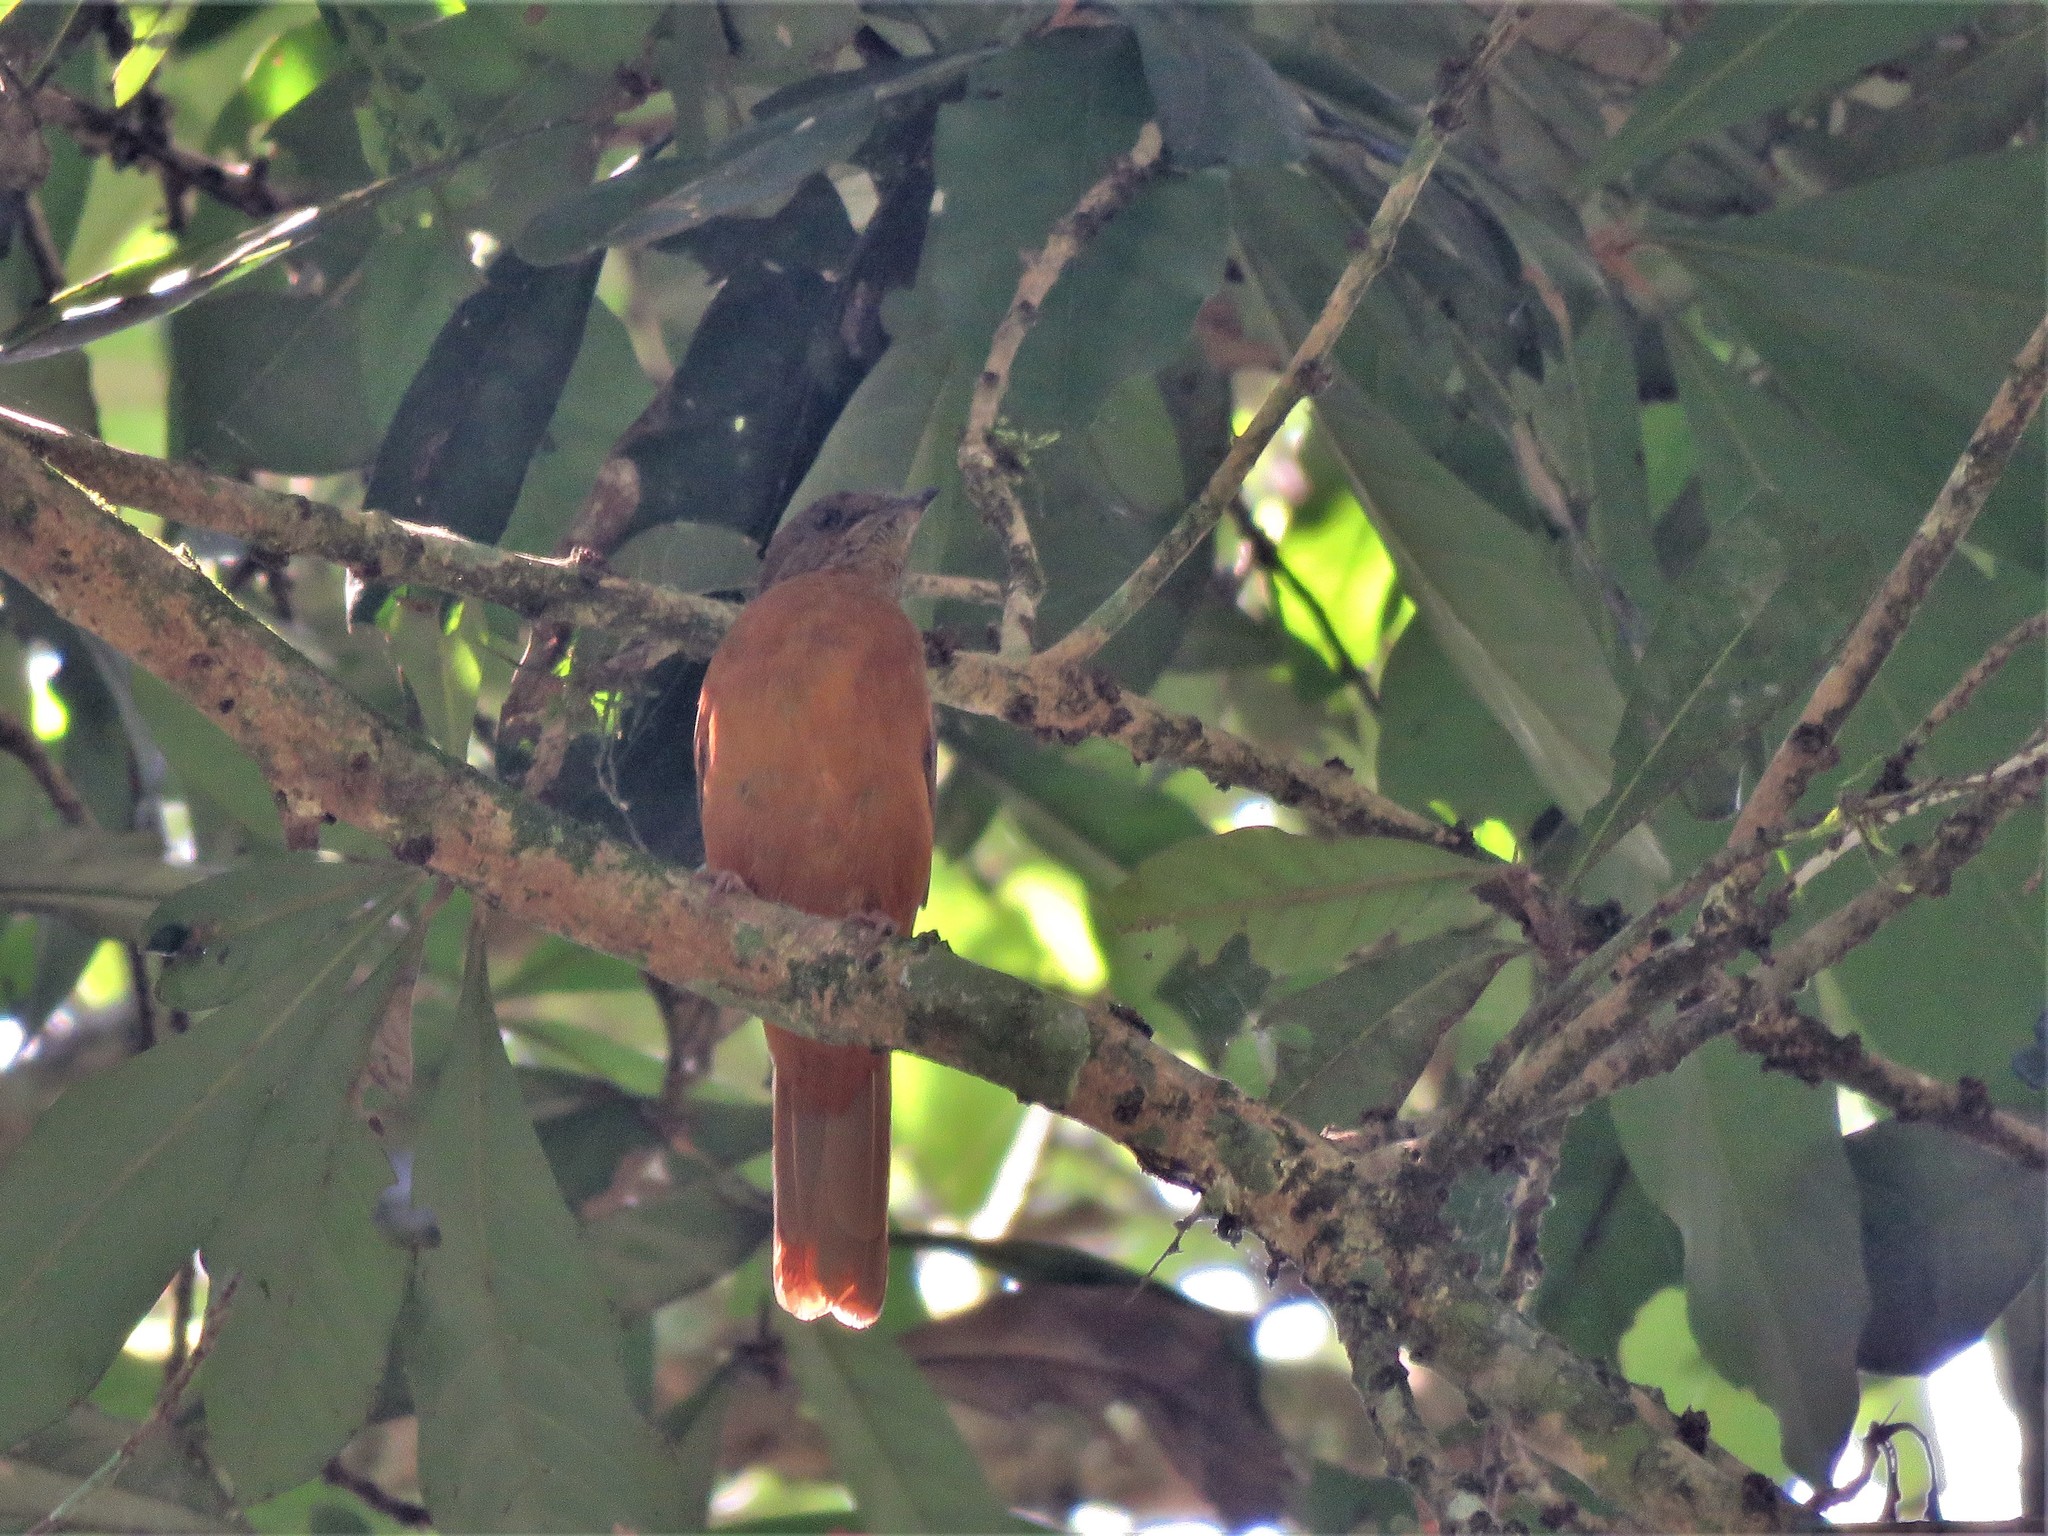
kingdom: Animalia
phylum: Chordata
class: Aves
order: Passeriformes
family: Turdidae
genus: Stizorhina
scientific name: Stizorhina fraseri
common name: Fraser's rufous thrush
